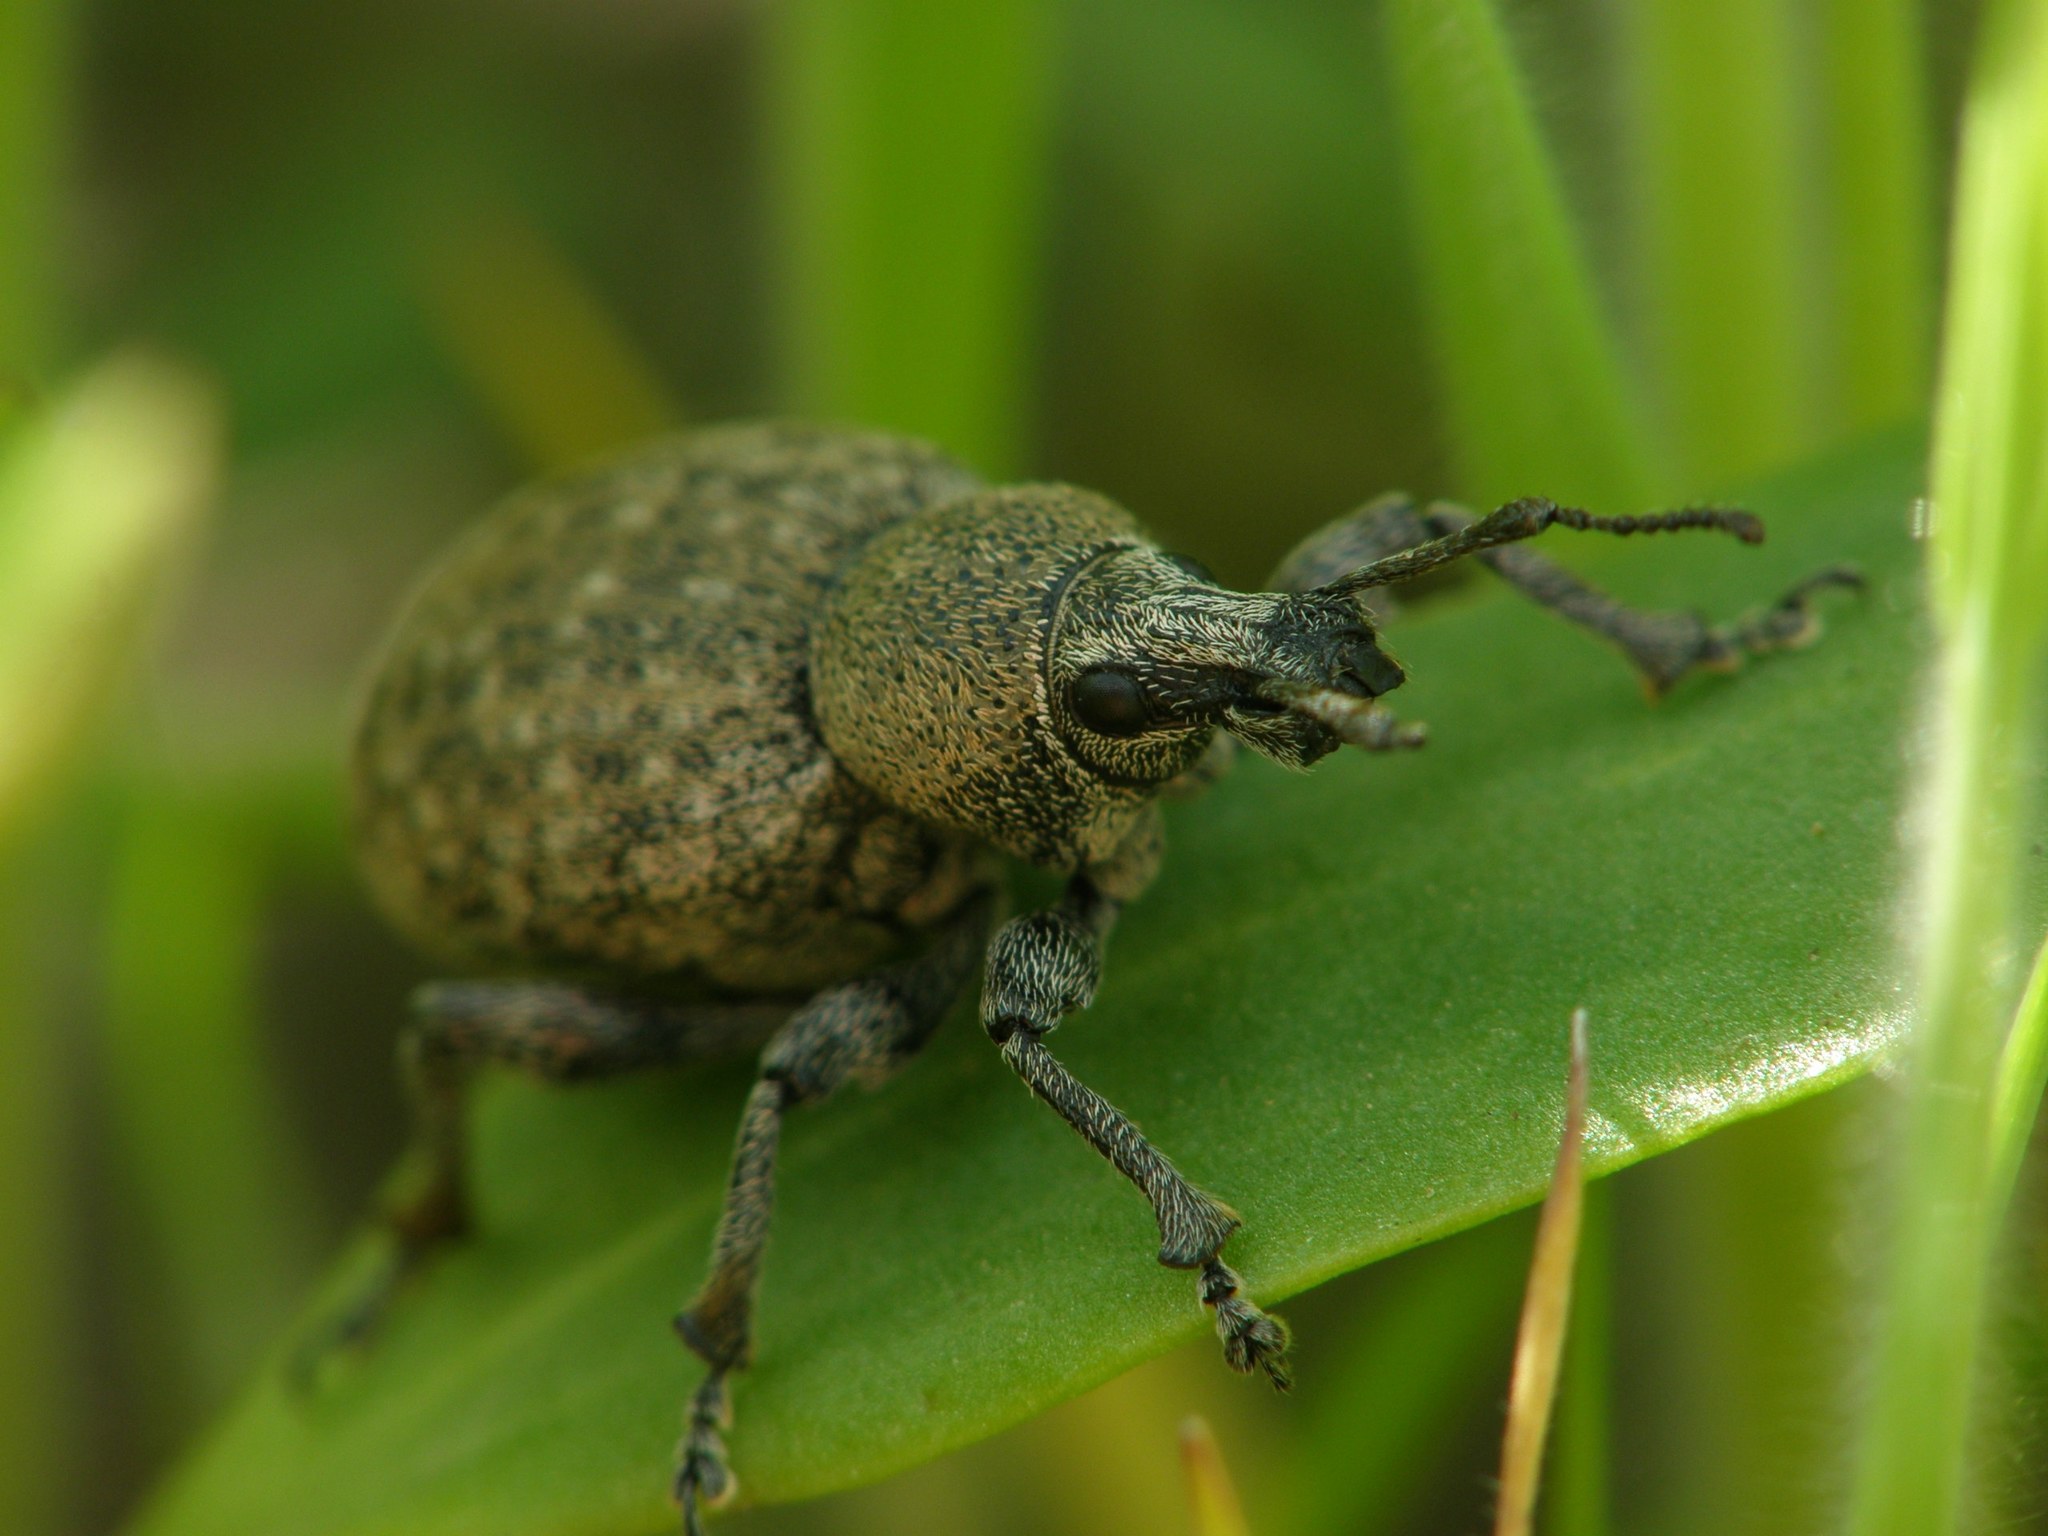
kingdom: Animalia
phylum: Arthropoda
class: Insecta
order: Coleoptera
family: Curculionidae
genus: Otiorhynchus
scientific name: Otiorhynchus ligustici
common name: Weevil
